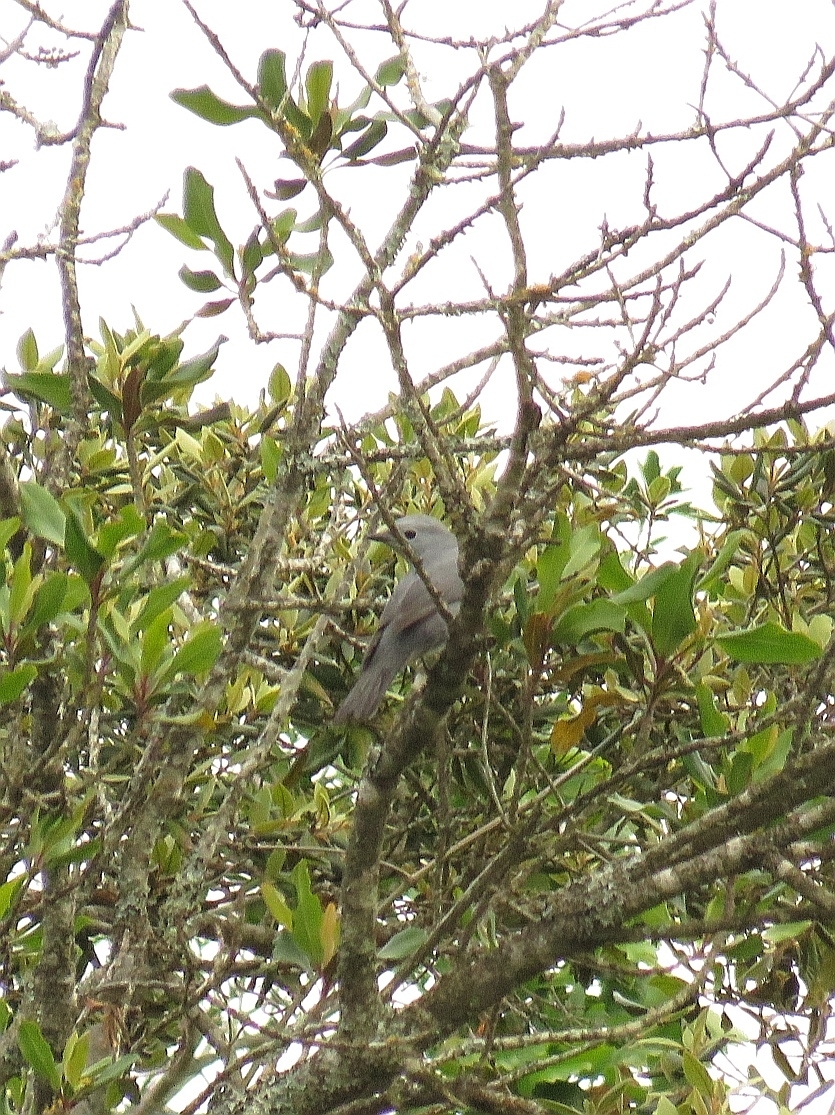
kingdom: Animalia
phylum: Chordata
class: Aves
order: Passeriformes
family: Campephagidae
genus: Coracina
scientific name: Coracina caesia
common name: Grey cuckooshrike
